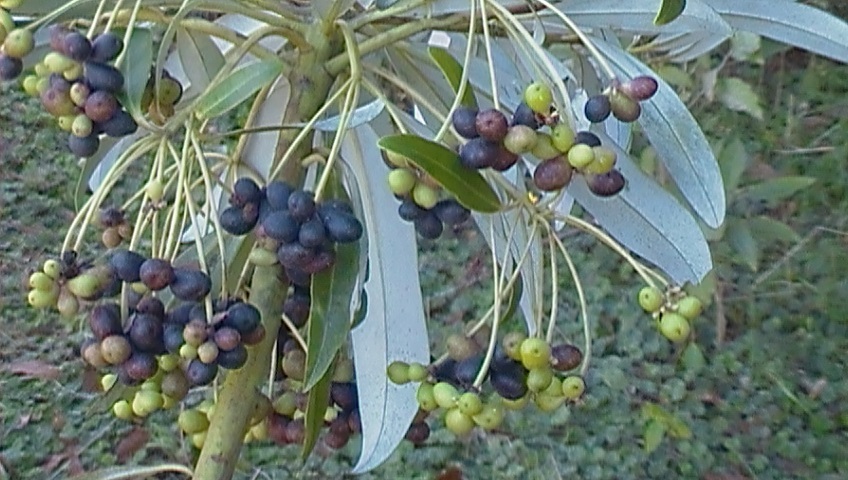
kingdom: Plantae
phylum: Tracheophyta
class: Magnoliopsida
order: Canellales
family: Winteraceae
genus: Drimys
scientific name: Drimys granadensis
